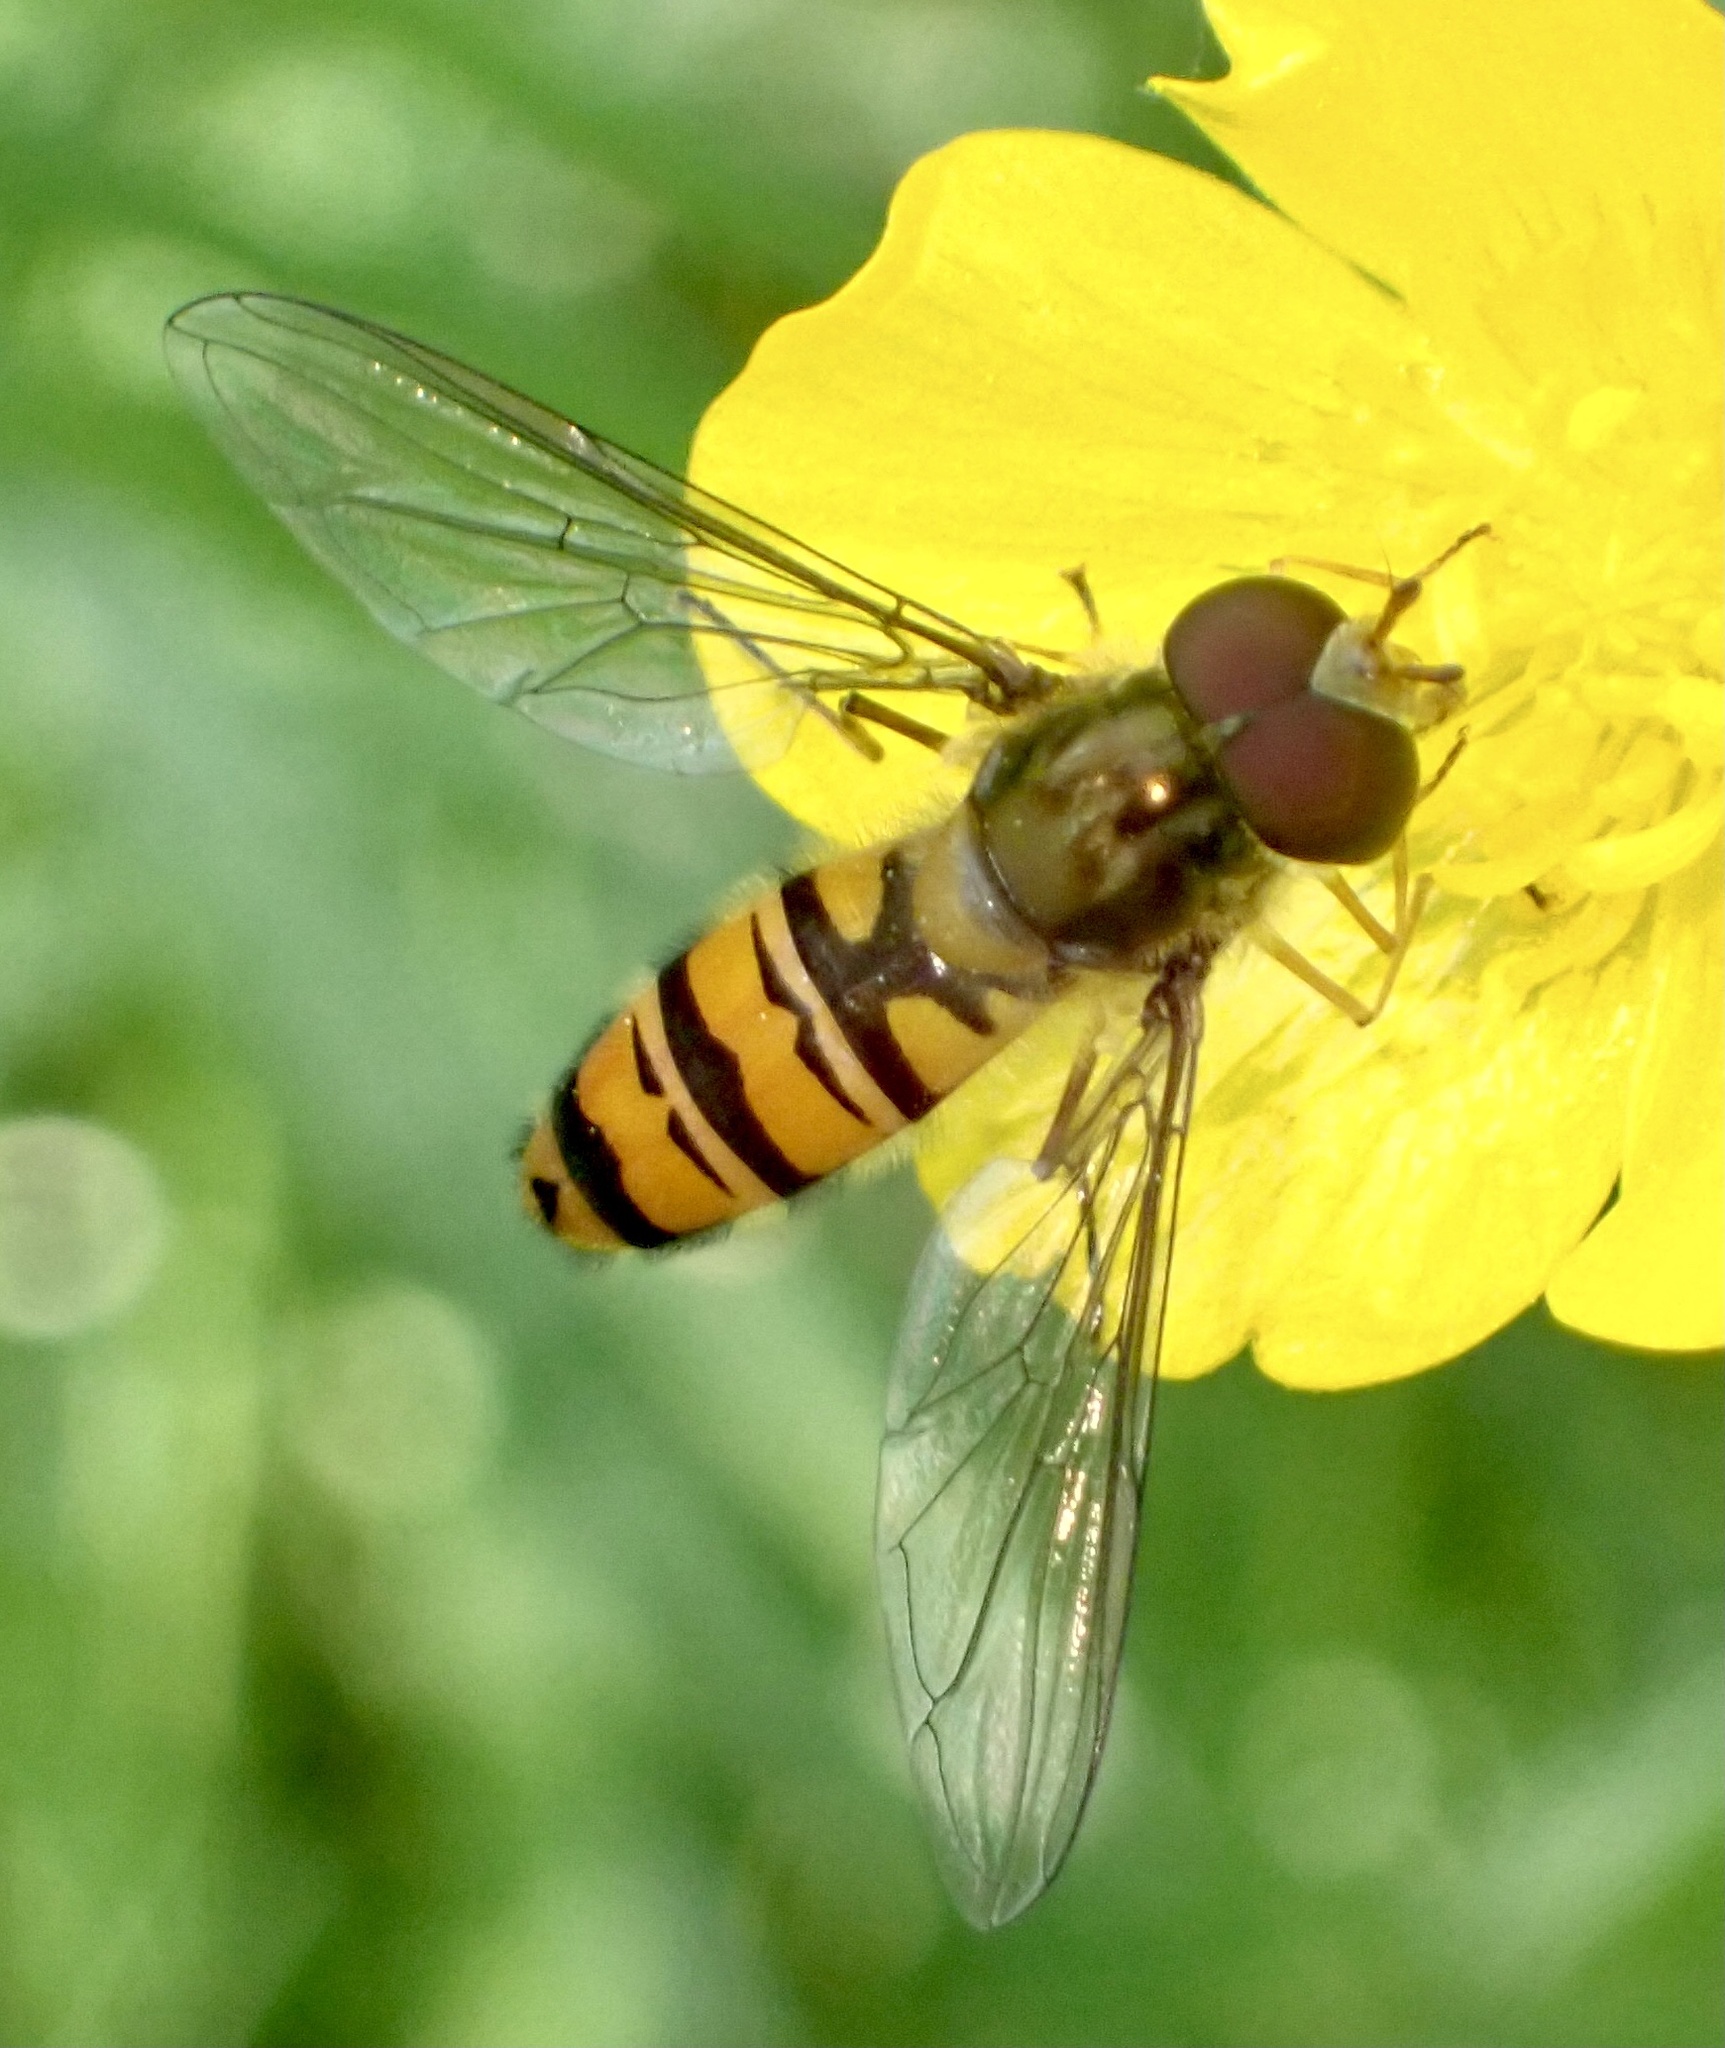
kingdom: Animalia
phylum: Arthropoda
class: Insecta
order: Diptera
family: Syrphidae
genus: Episyrphus
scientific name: Episyrphus balteatus
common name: Marmalade hoverfly
